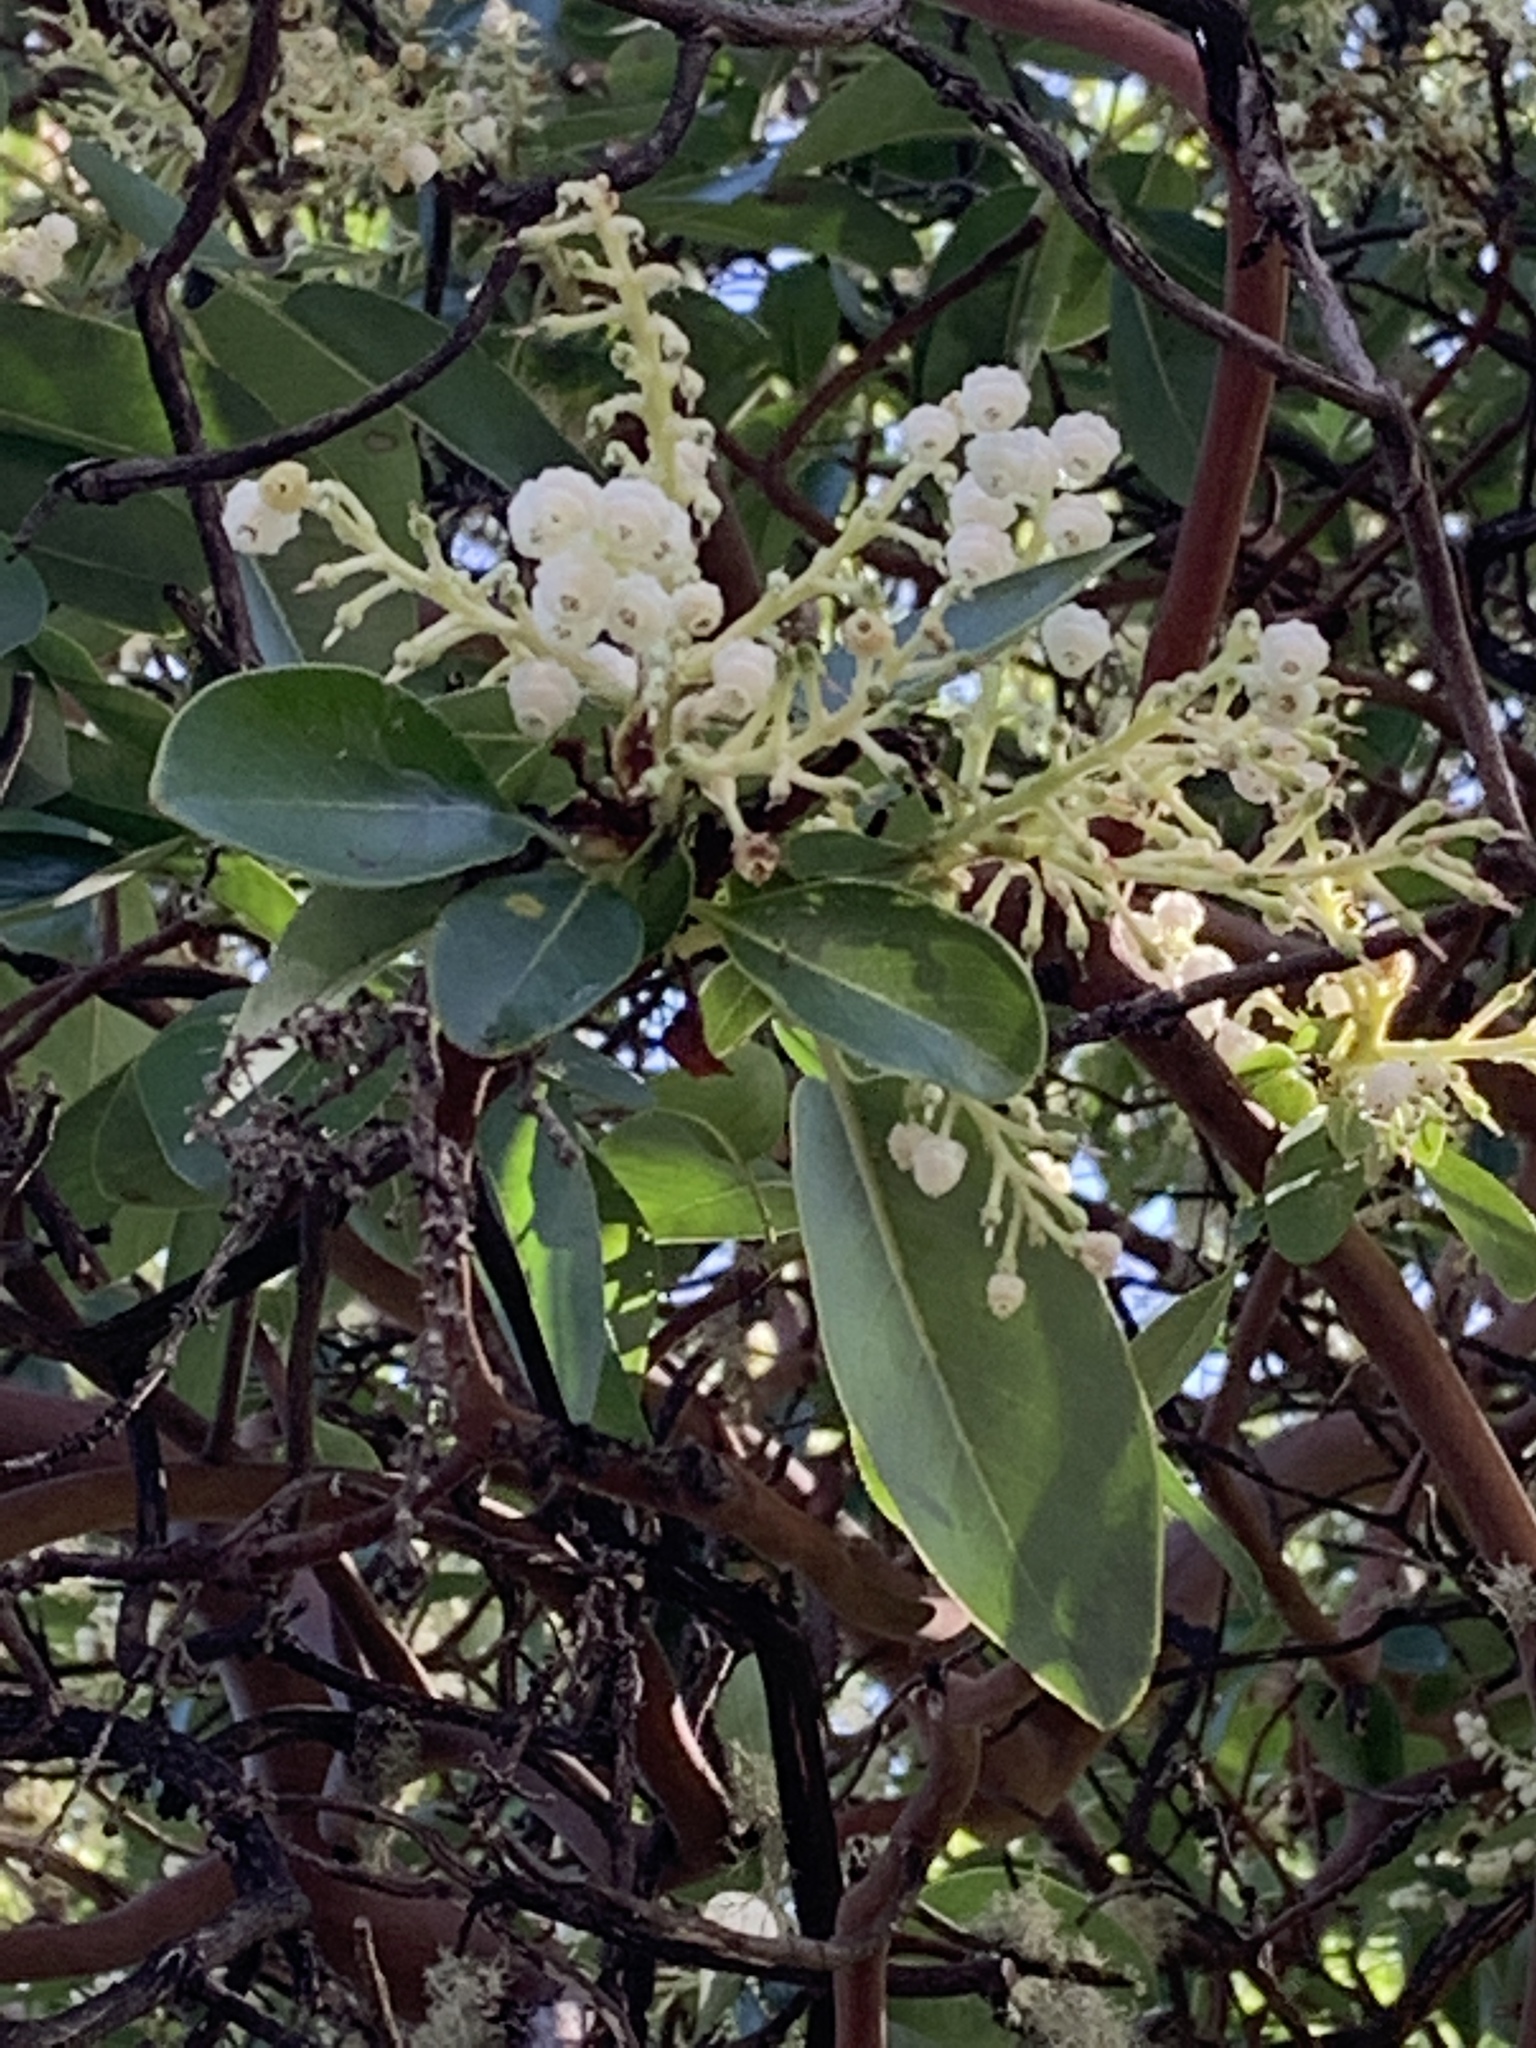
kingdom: Plantae
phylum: Tracheophyta
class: Magnoliopsida
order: Ericales
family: Ericaceae
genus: Arbutus
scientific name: Arbutus menziesii
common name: Pacific madrone
